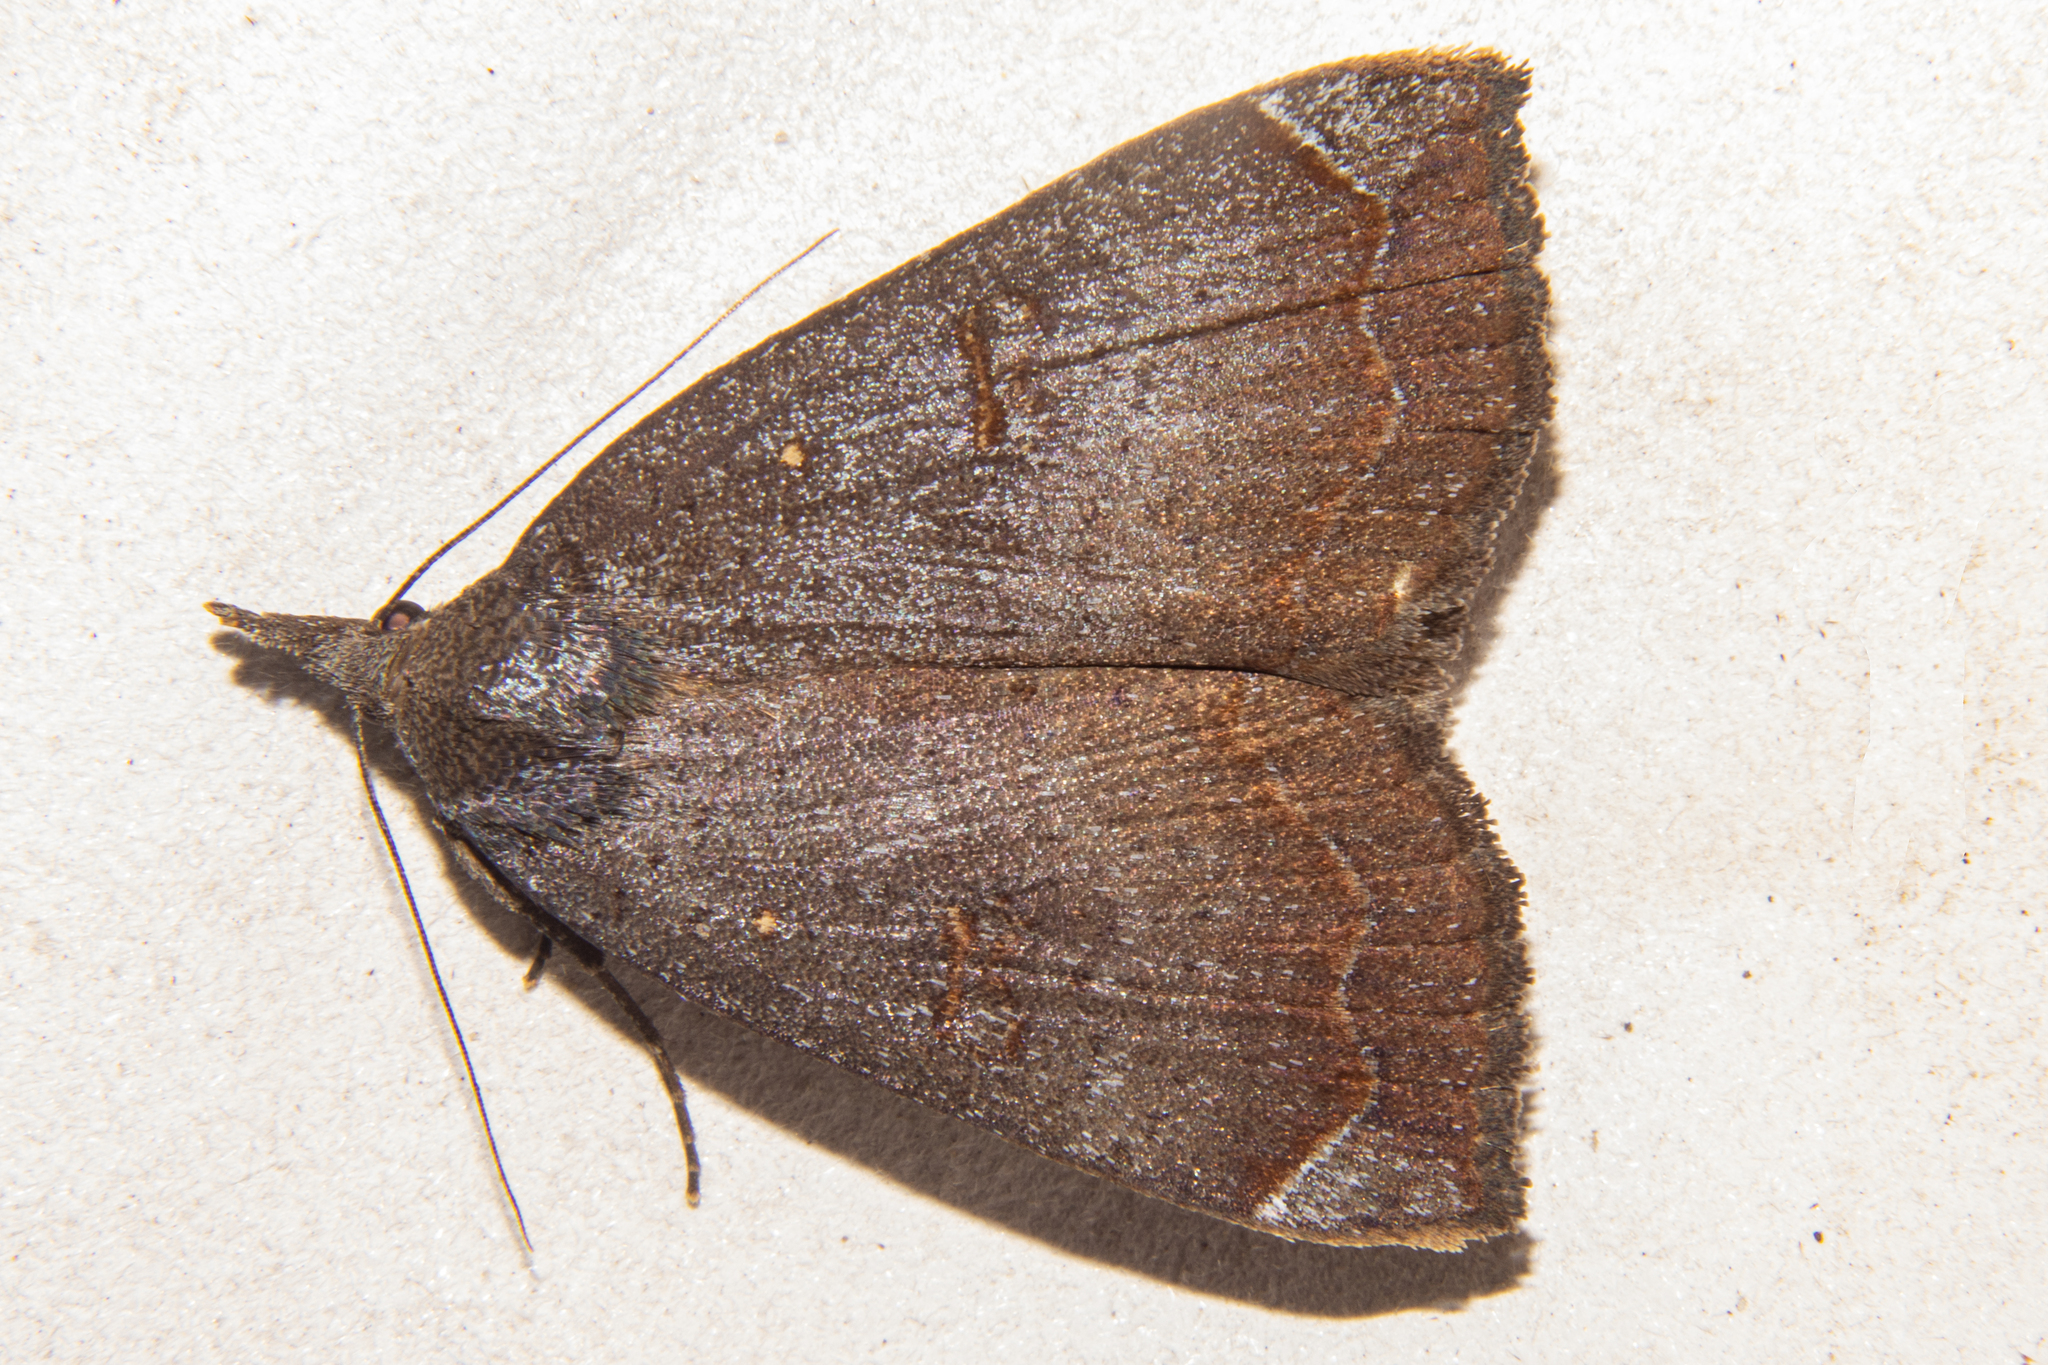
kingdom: Animalia
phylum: Arthropoda
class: Insecta
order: Lepidoptera
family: Erebidae
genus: Rhapsa
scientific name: Rhapsa scotosialis
